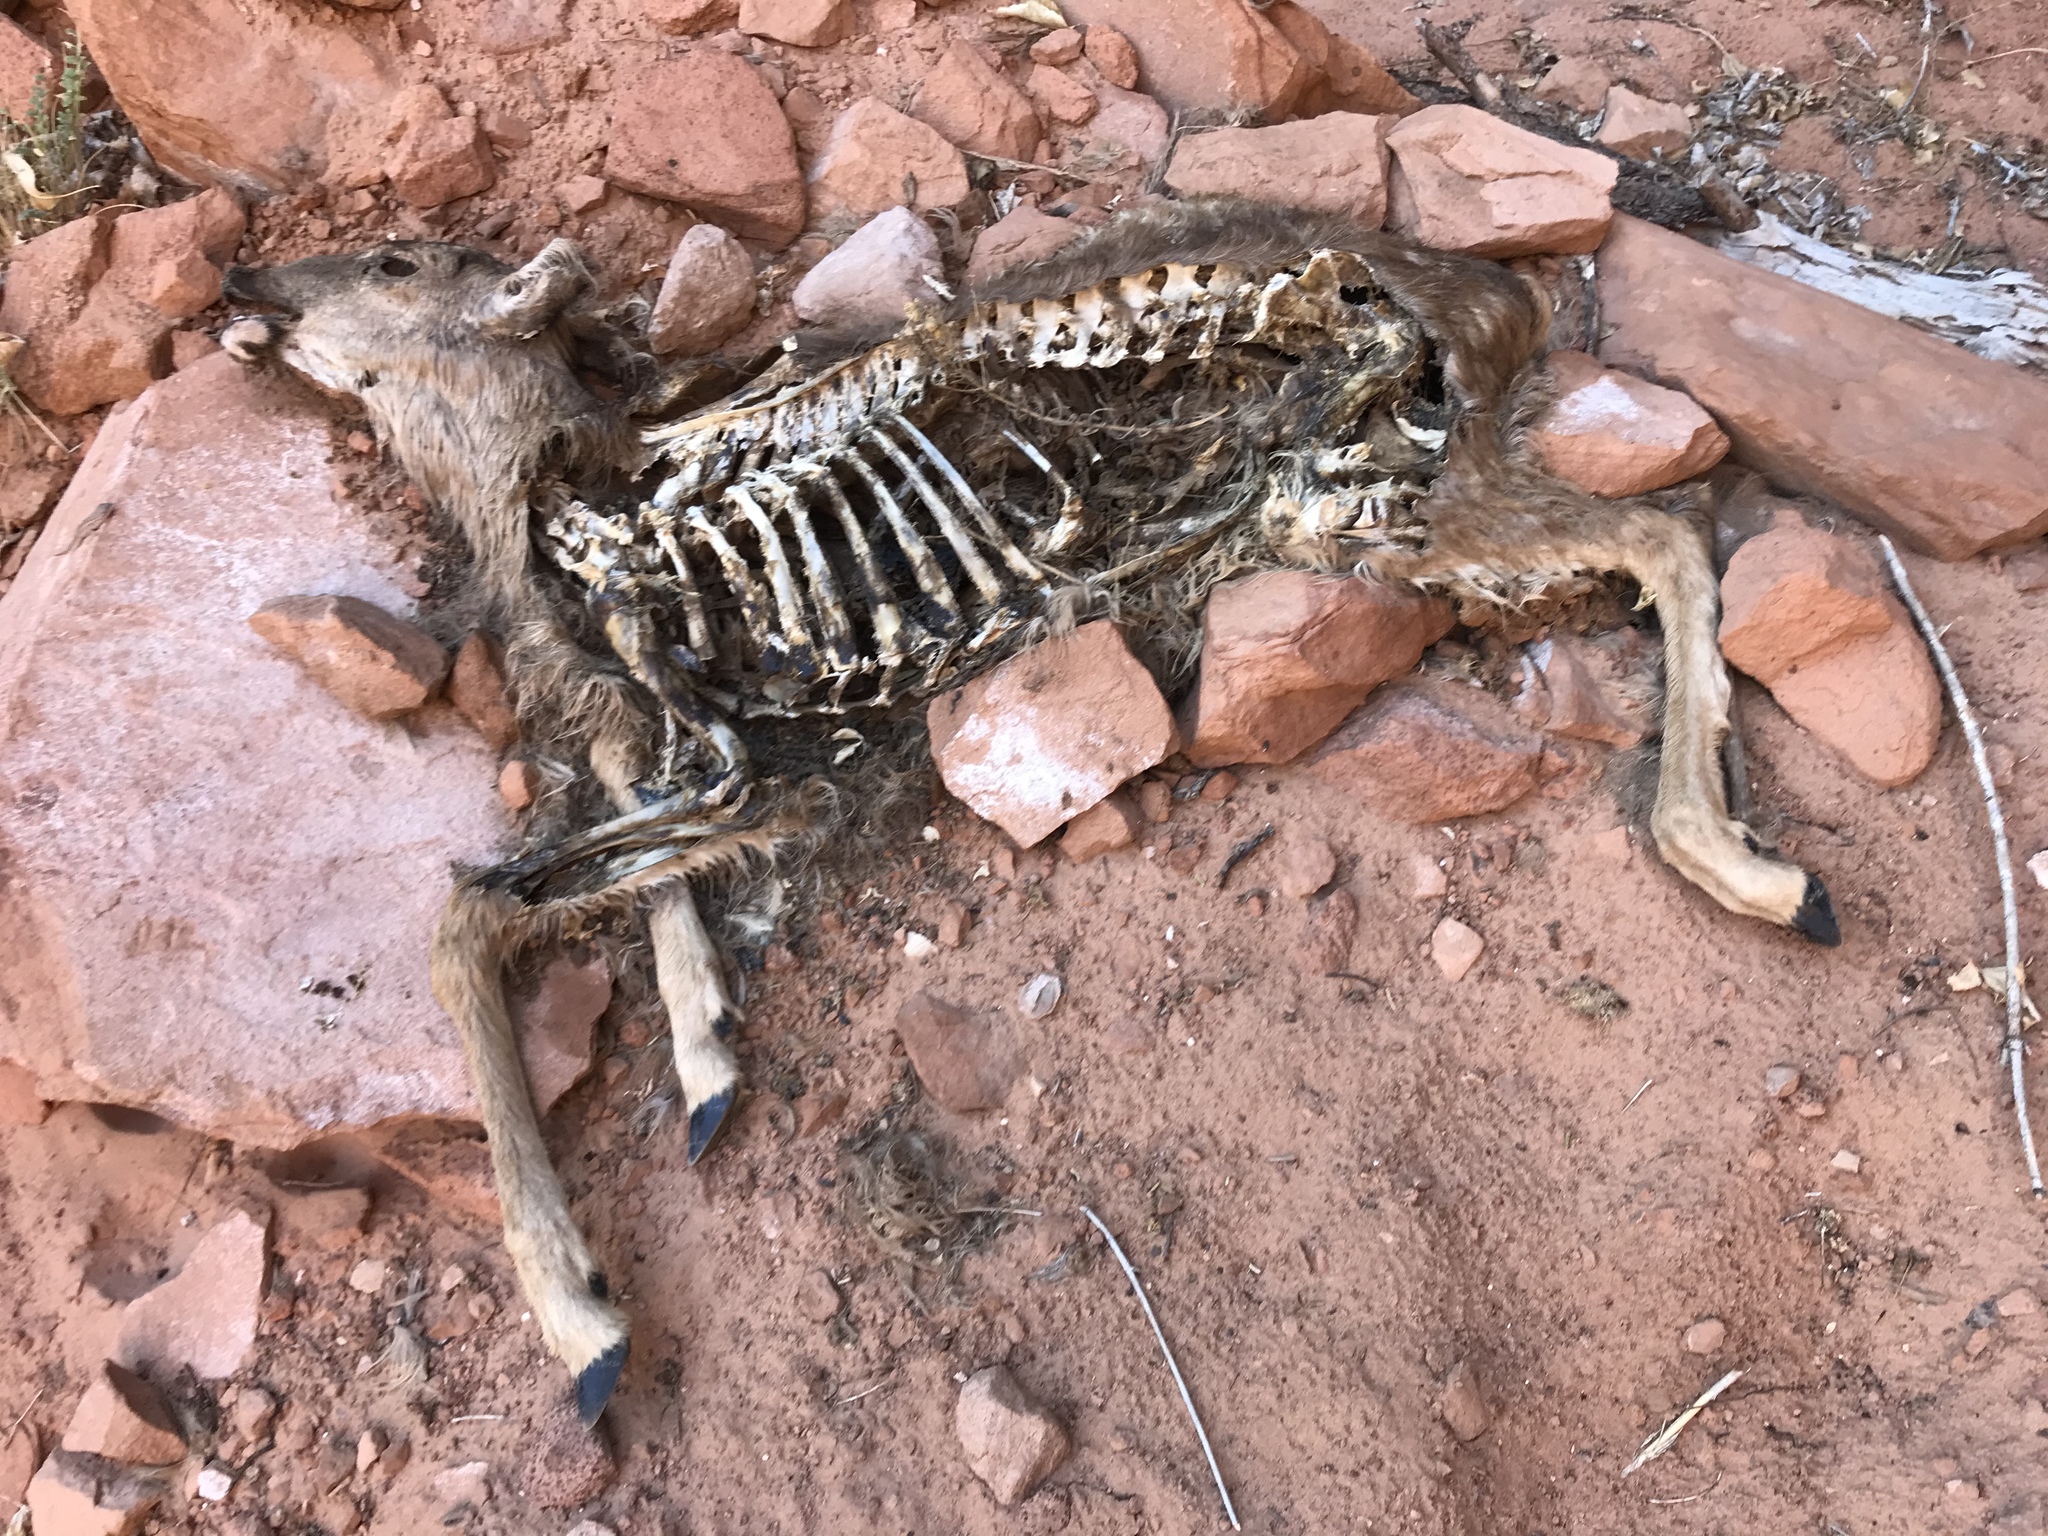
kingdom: Animalia
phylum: Chordata
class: Mammalia
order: Artiodactyla
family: Cervidae
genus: Odocoileus
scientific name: Odocoileus hemionus
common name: Mule deer
